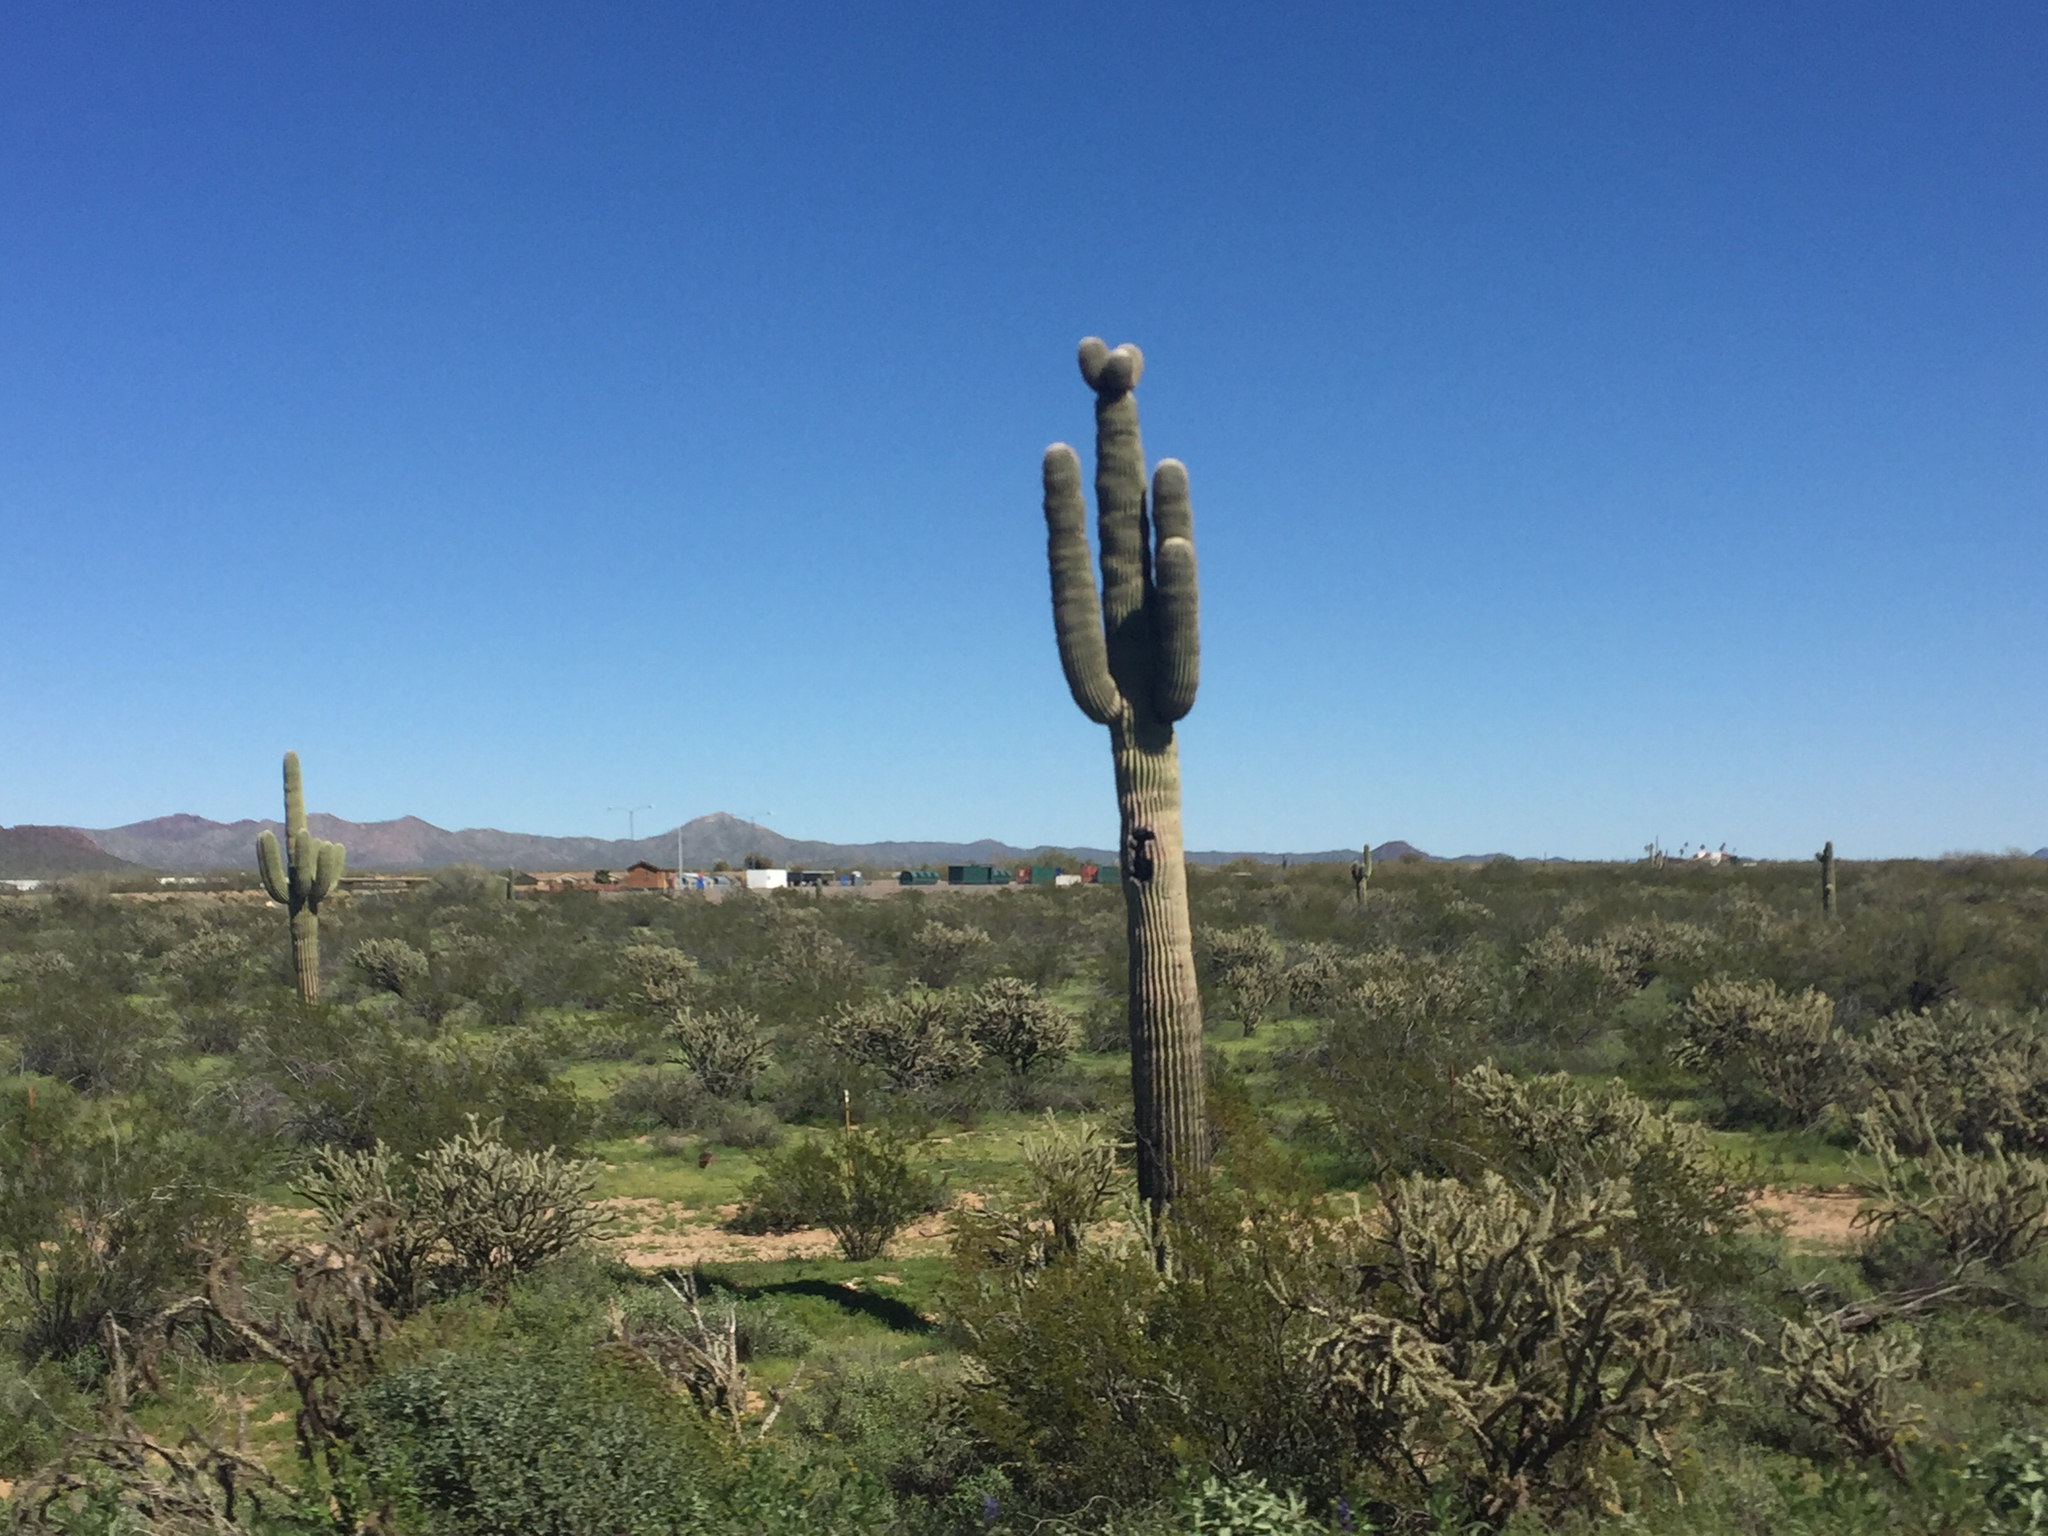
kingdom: Plantae
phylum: Tracheophyta
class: Magnoliopsida
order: Caryophyllales
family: Cactaceae
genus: Carnegiea
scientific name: Carnegiea gigantea
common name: Saguaro
